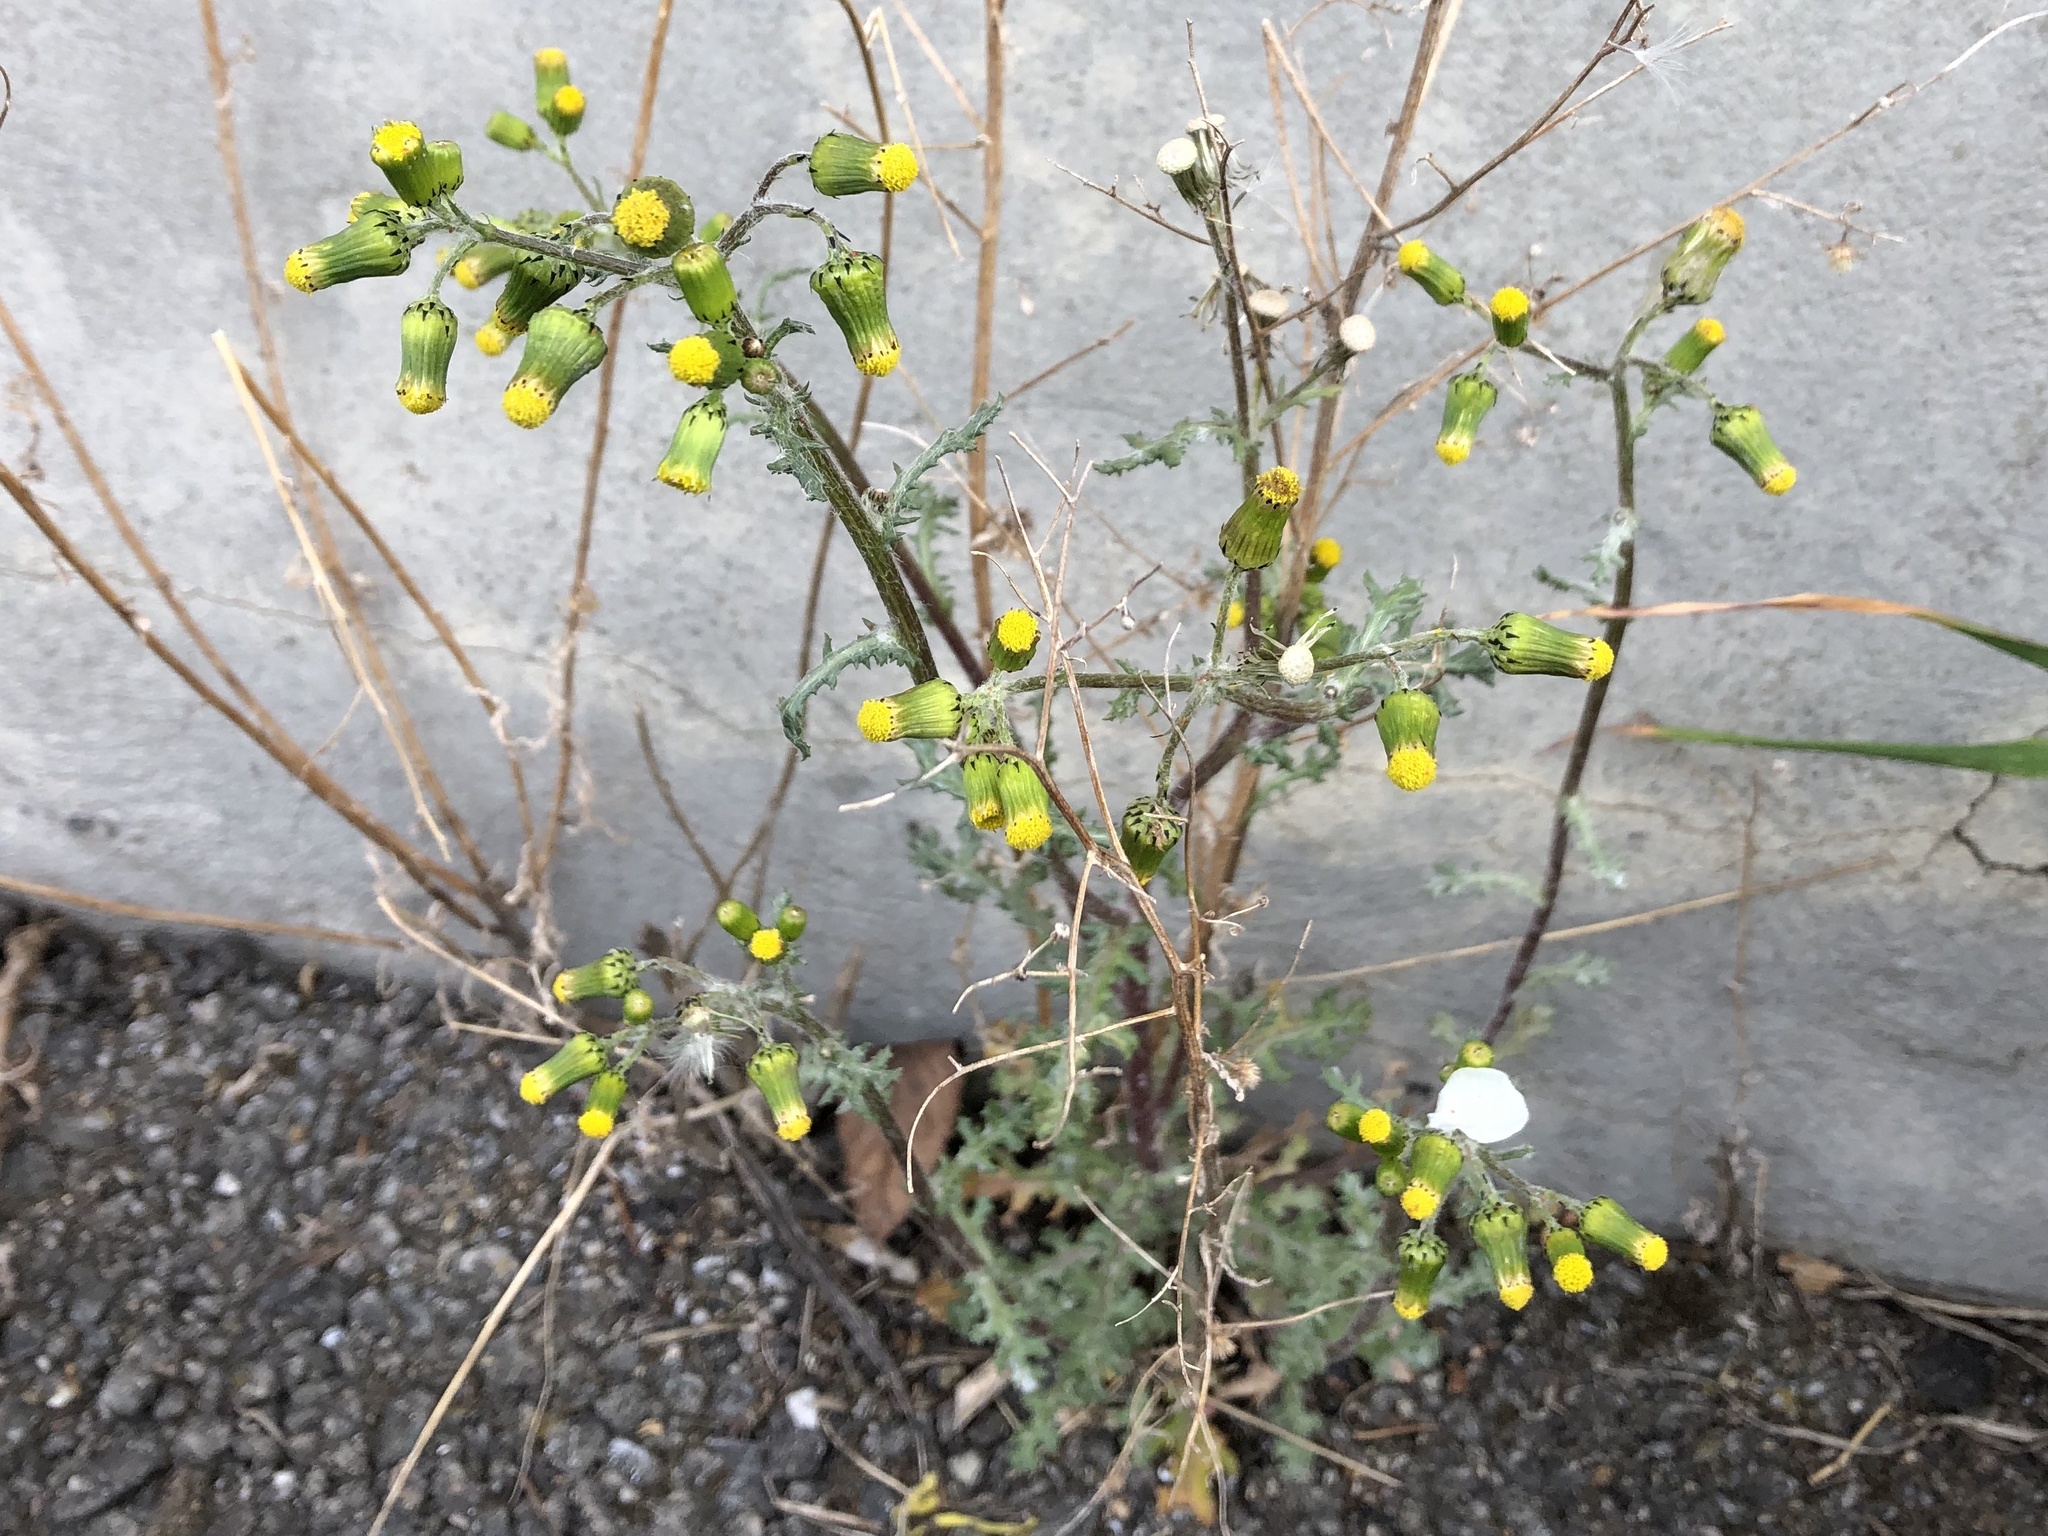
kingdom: Plantae
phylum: Tracheophyta
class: Magnoliopsida
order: Asterales
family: Asteraceae
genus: Senecio
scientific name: Senecio vulgaris
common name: Old-man-in-the-spring
